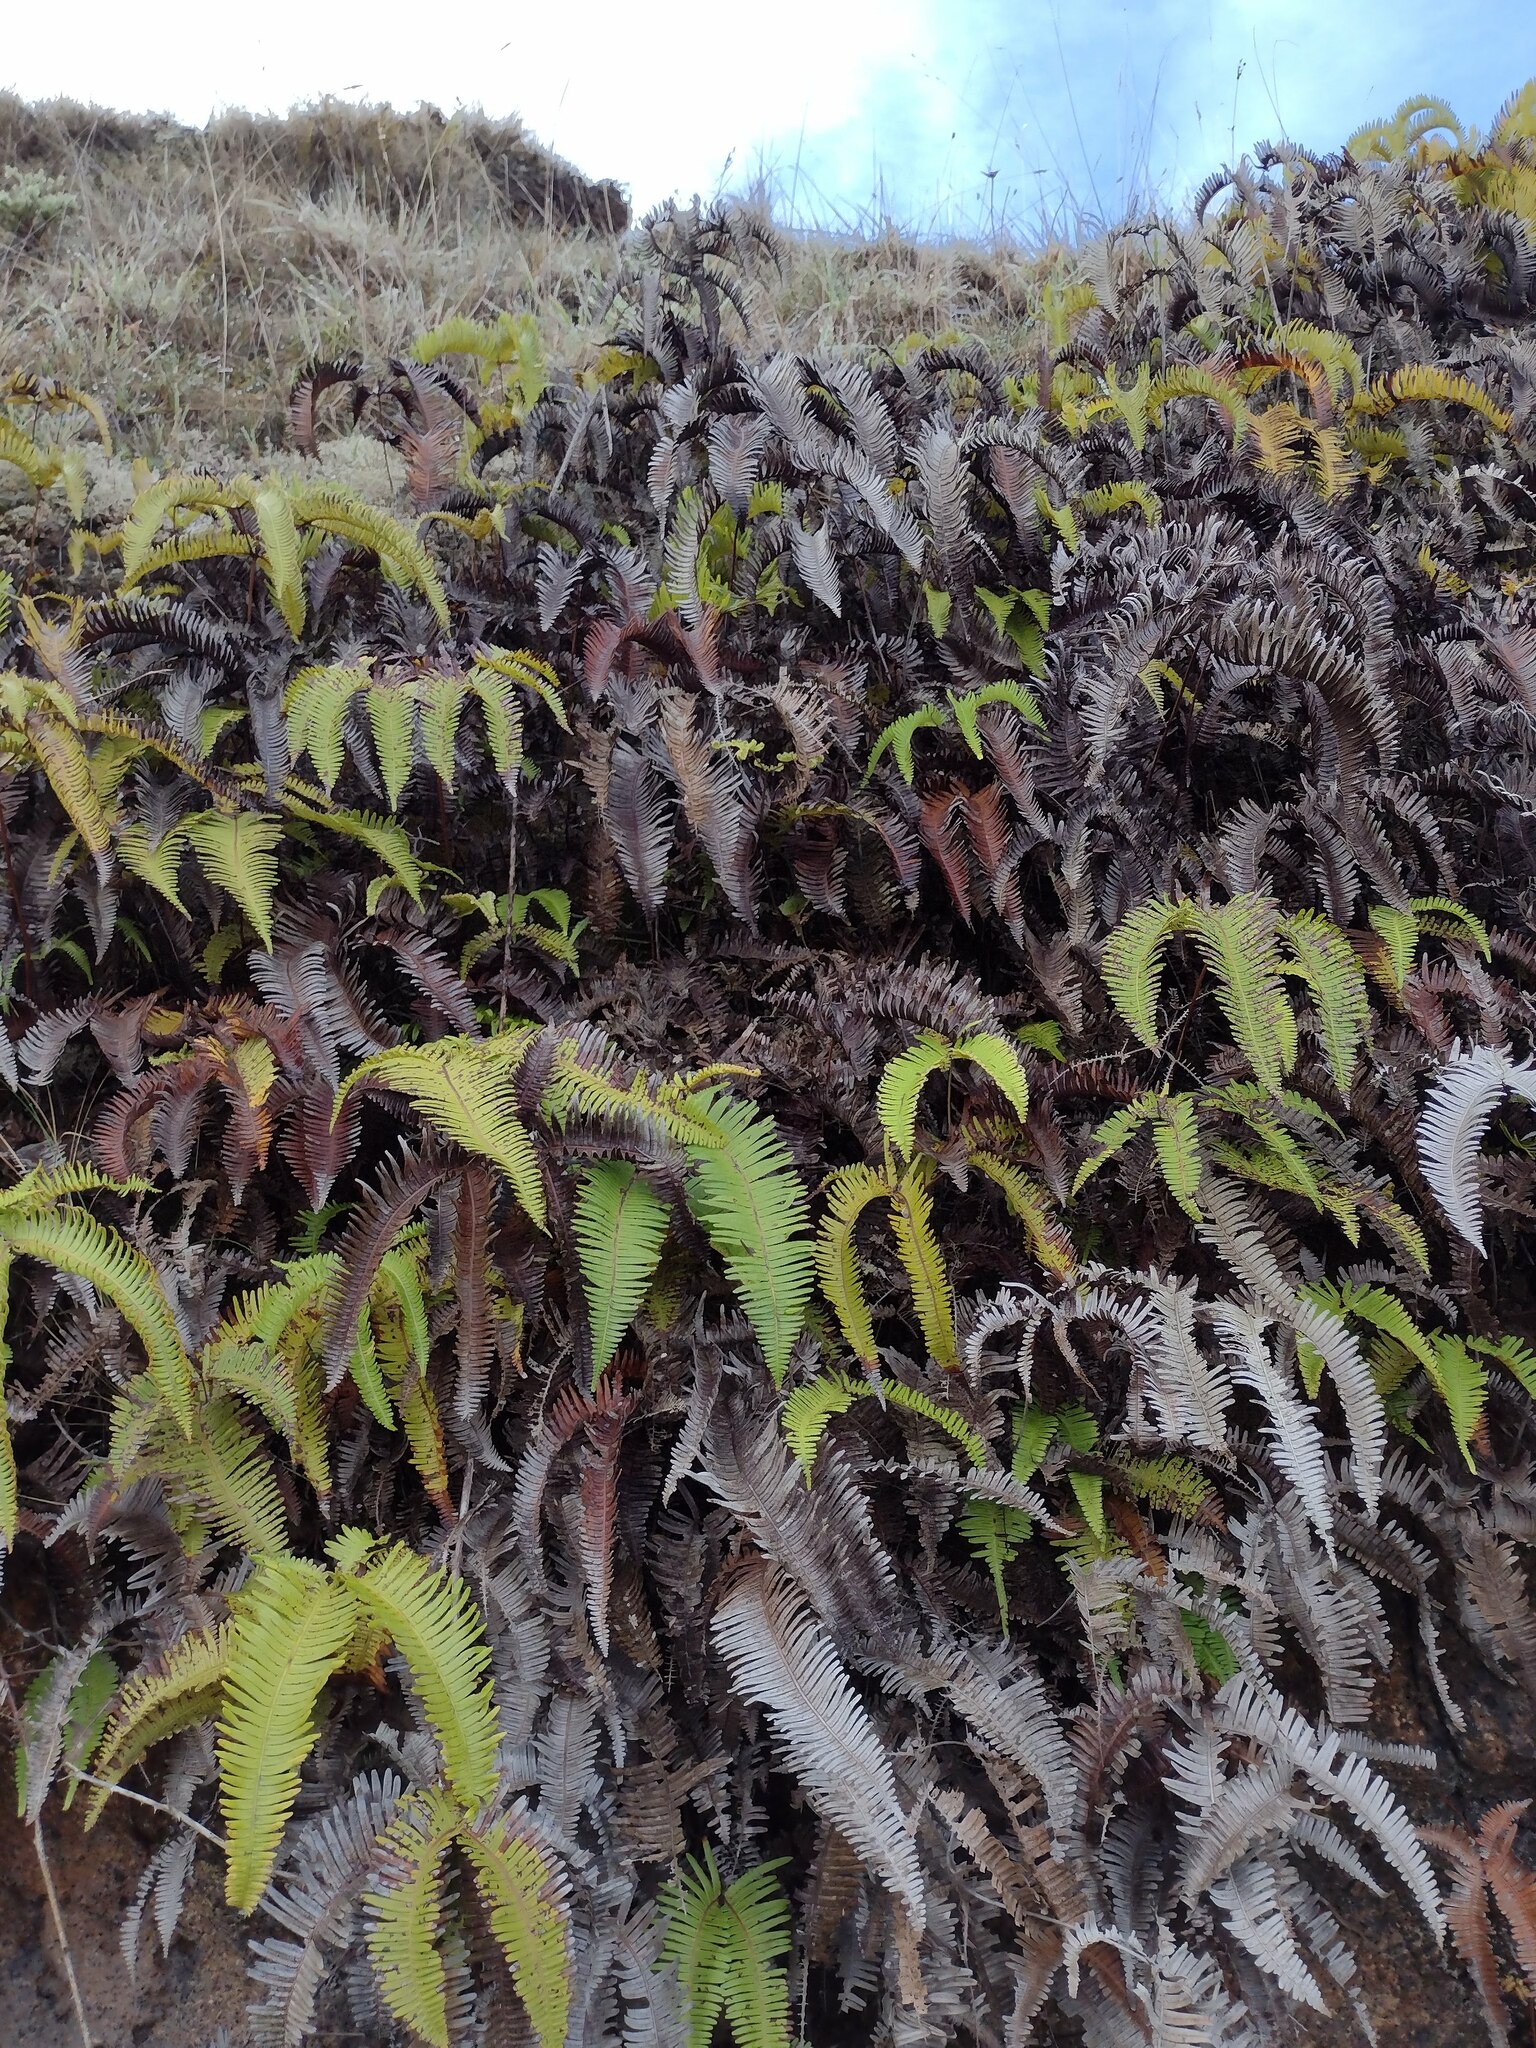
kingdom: Plantae
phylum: Tracheophyta
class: Polypodiopsida
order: Gleicheniales
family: Gleicheniaceae
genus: Dicranopteris
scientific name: Dicranopteris linearis
